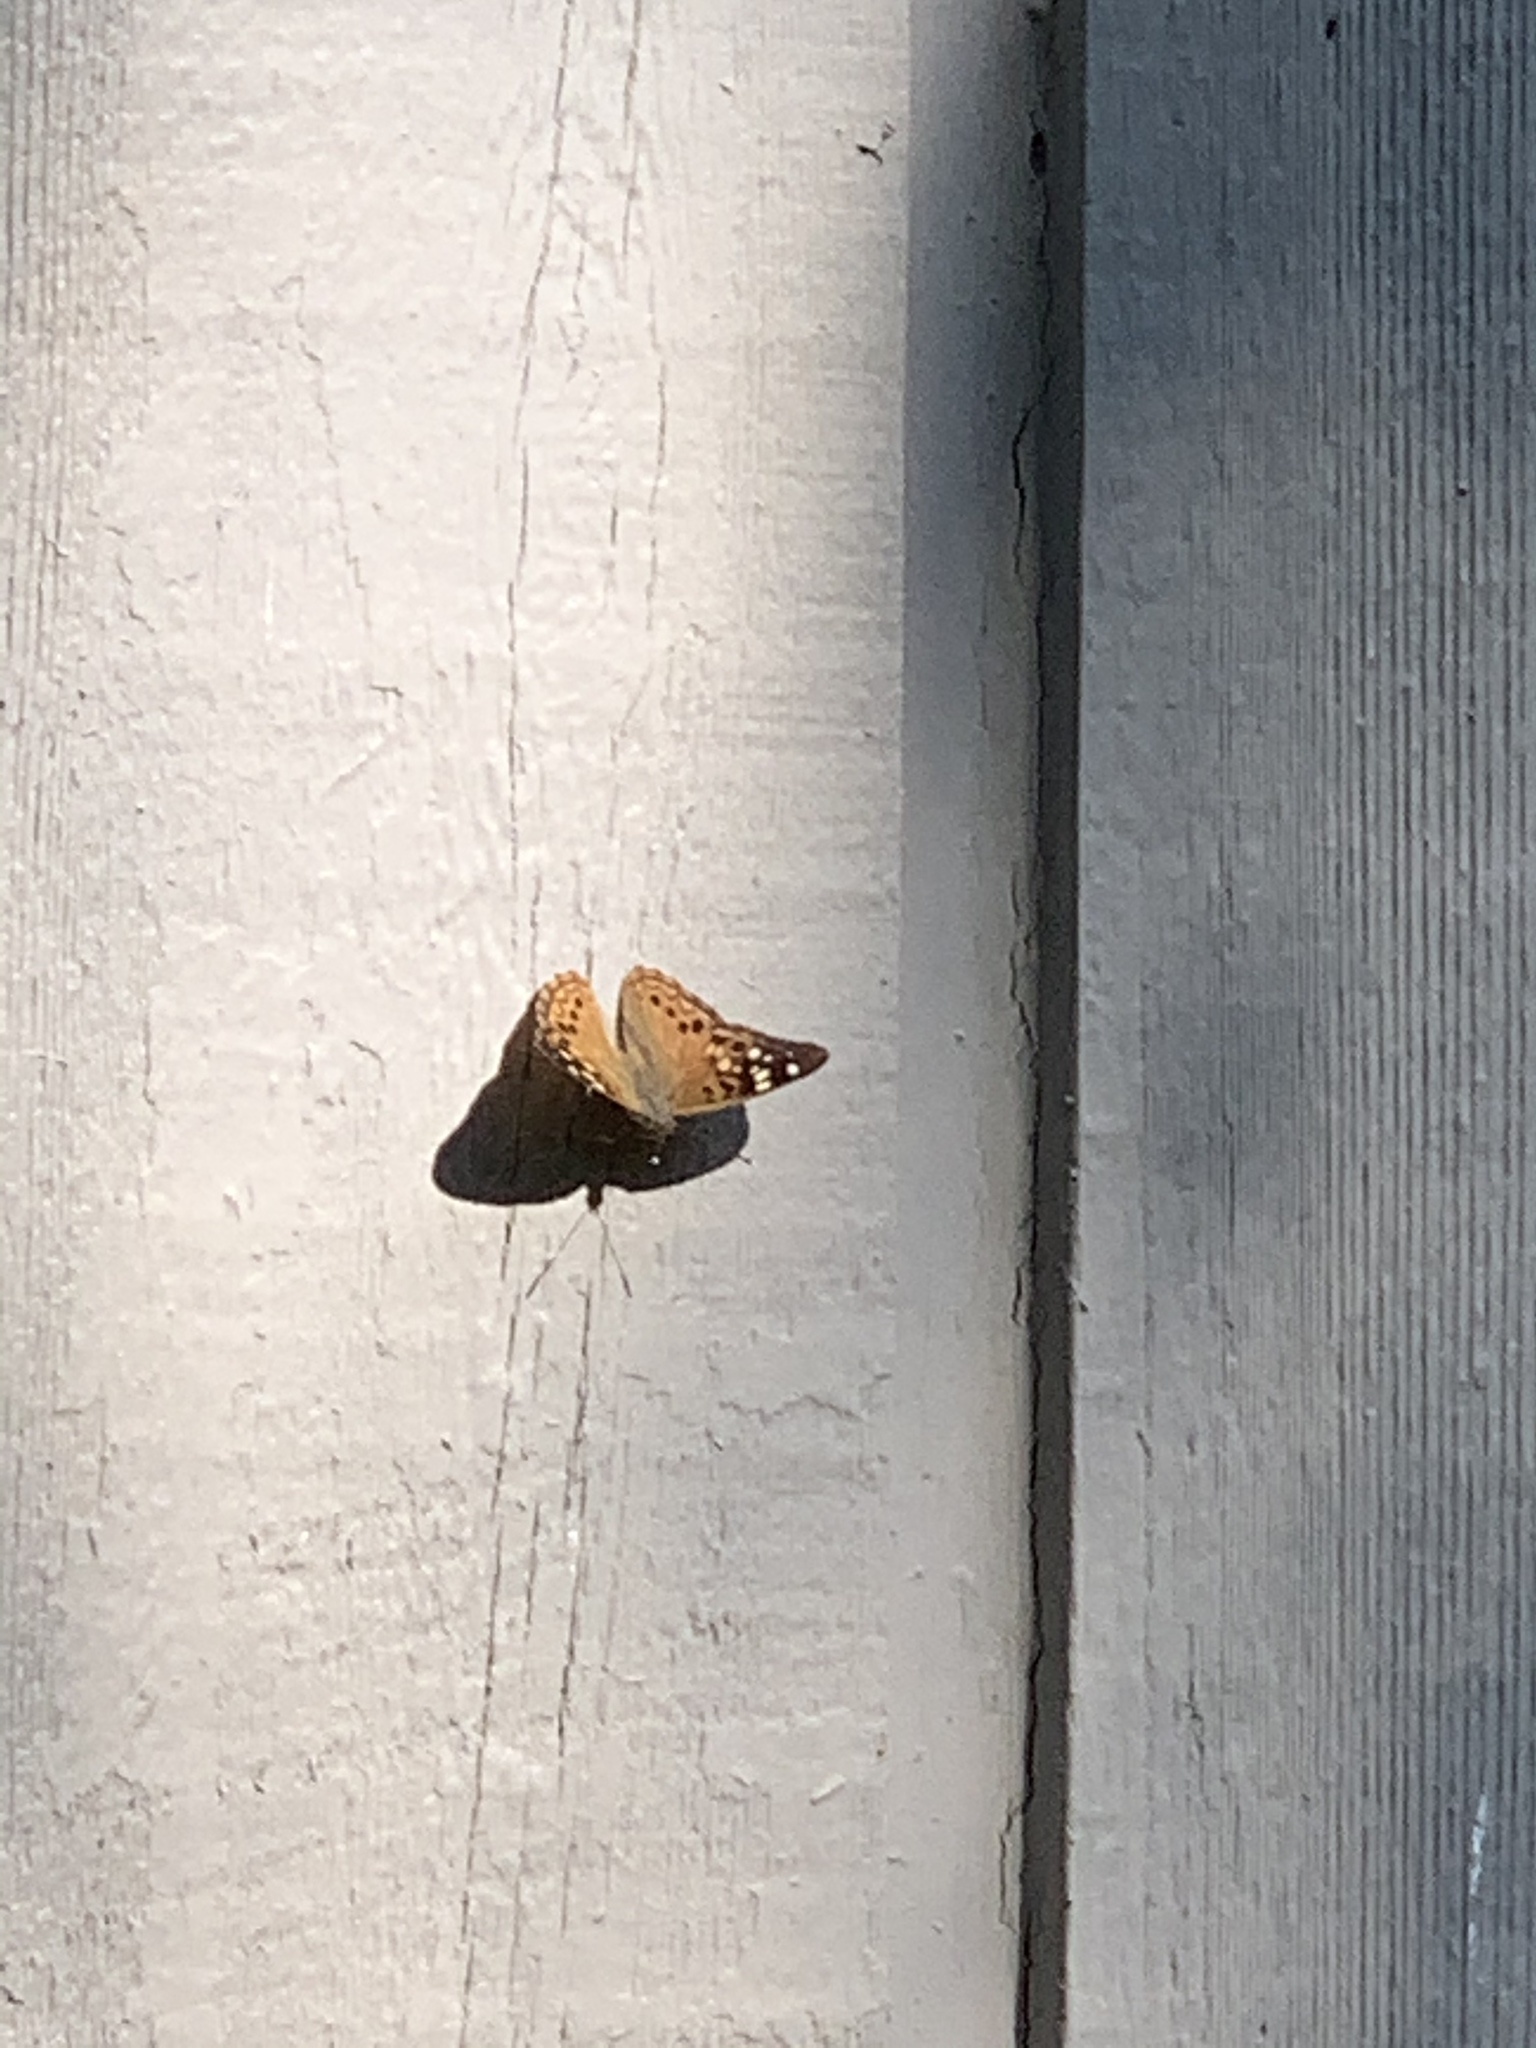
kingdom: Animalia
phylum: Arthropoda
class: Insecta
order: Lepidoptera
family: Nymphalidae
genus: Asterocampa
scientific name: Asterocampa celtis
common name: Hackberry emperor
